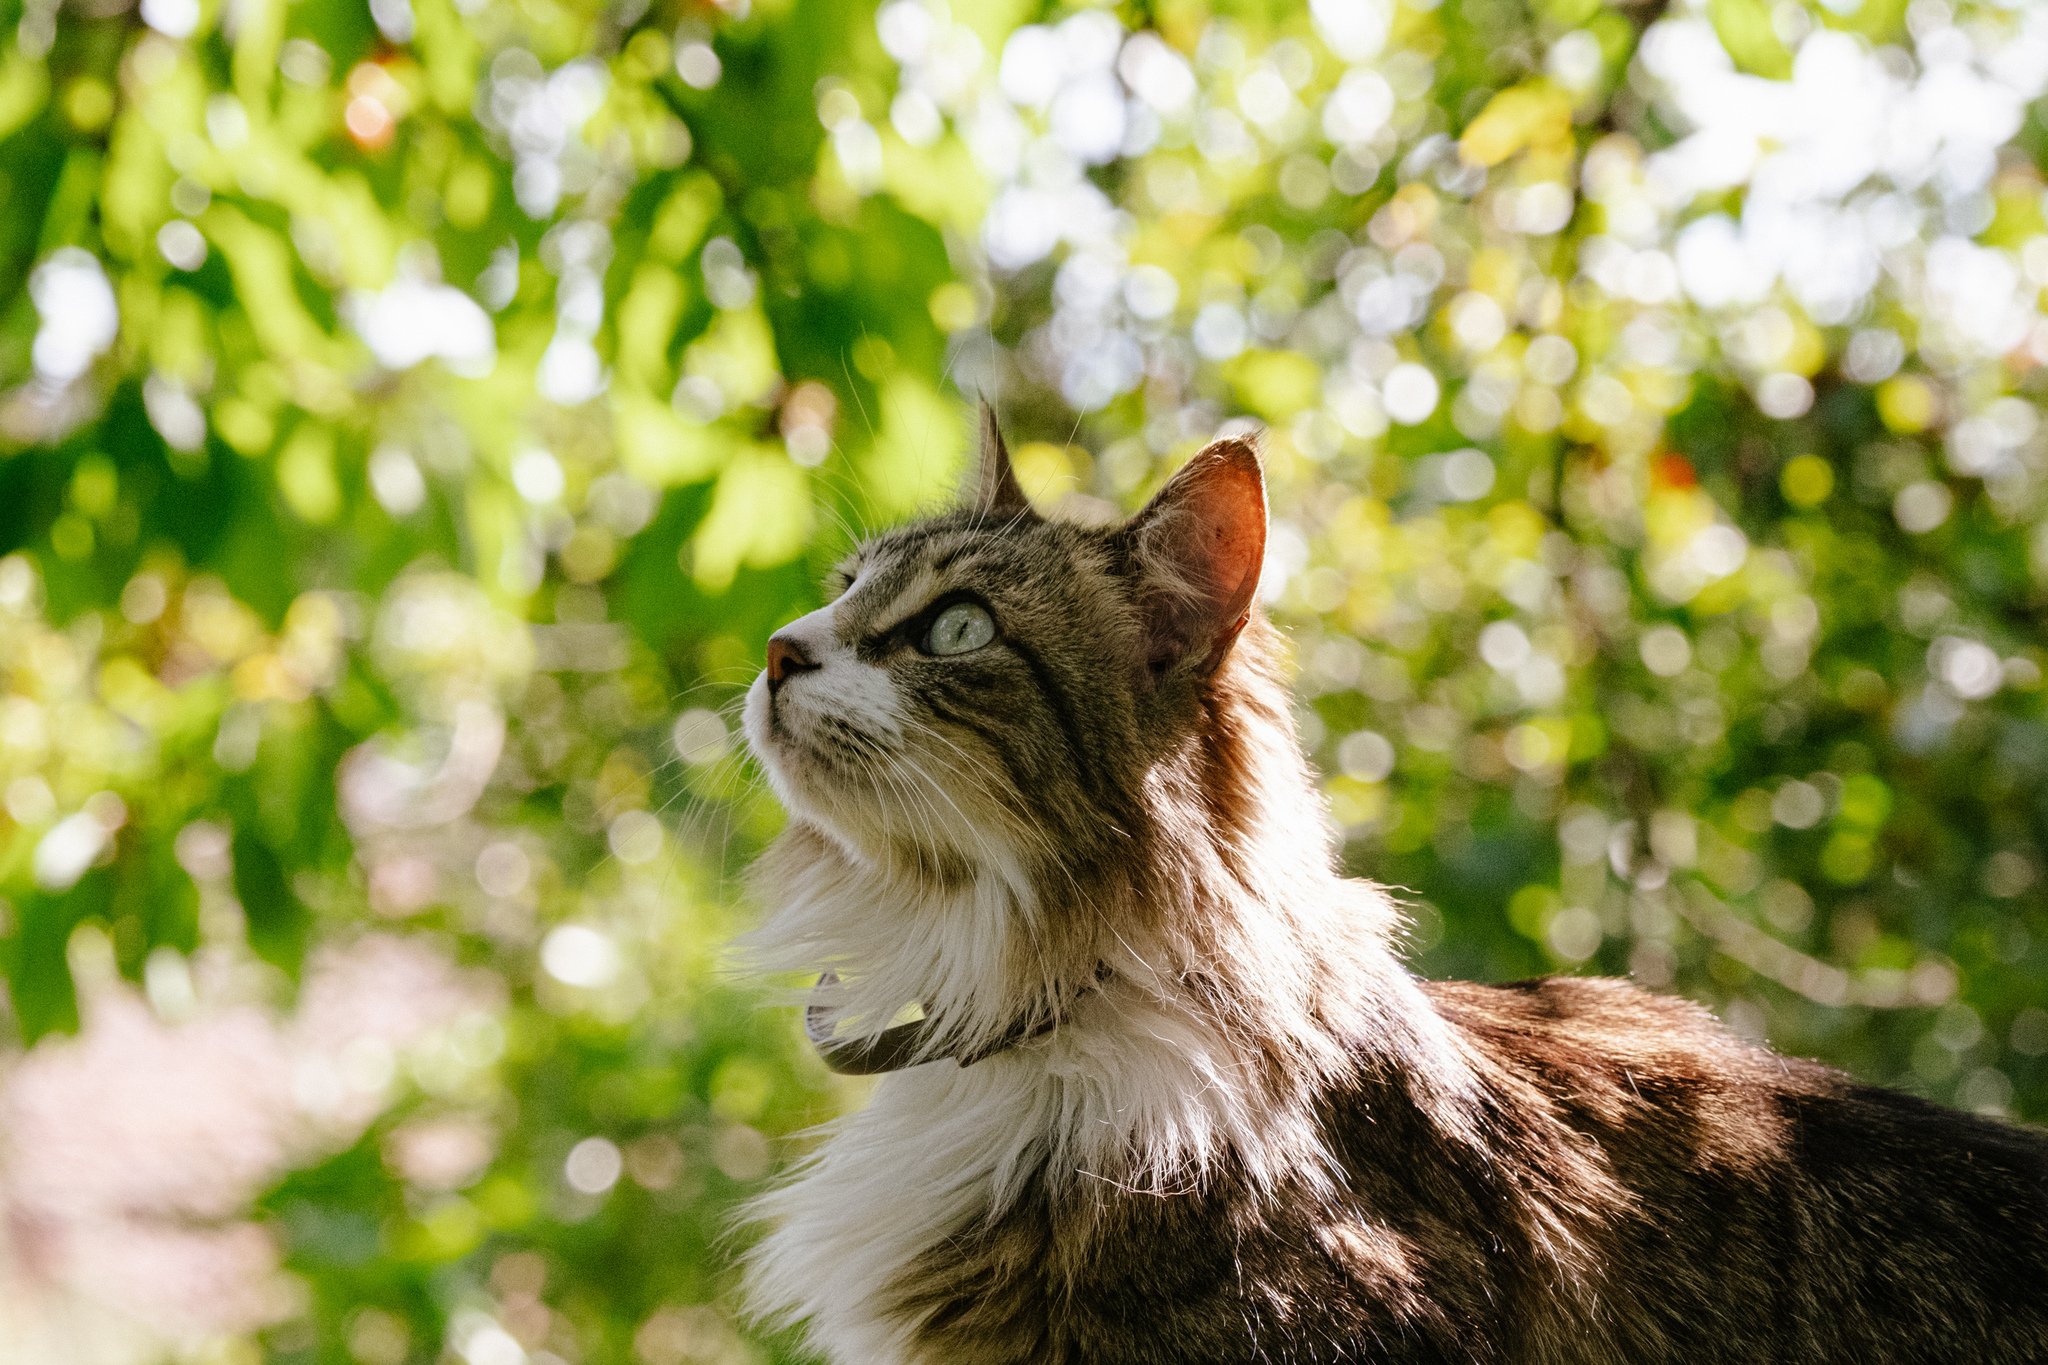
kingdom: Animalia
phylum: Chordata
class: Mammalia
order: Carnivora
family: Felidae
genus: Felis
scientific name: Felis catus
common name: Domestic cat
